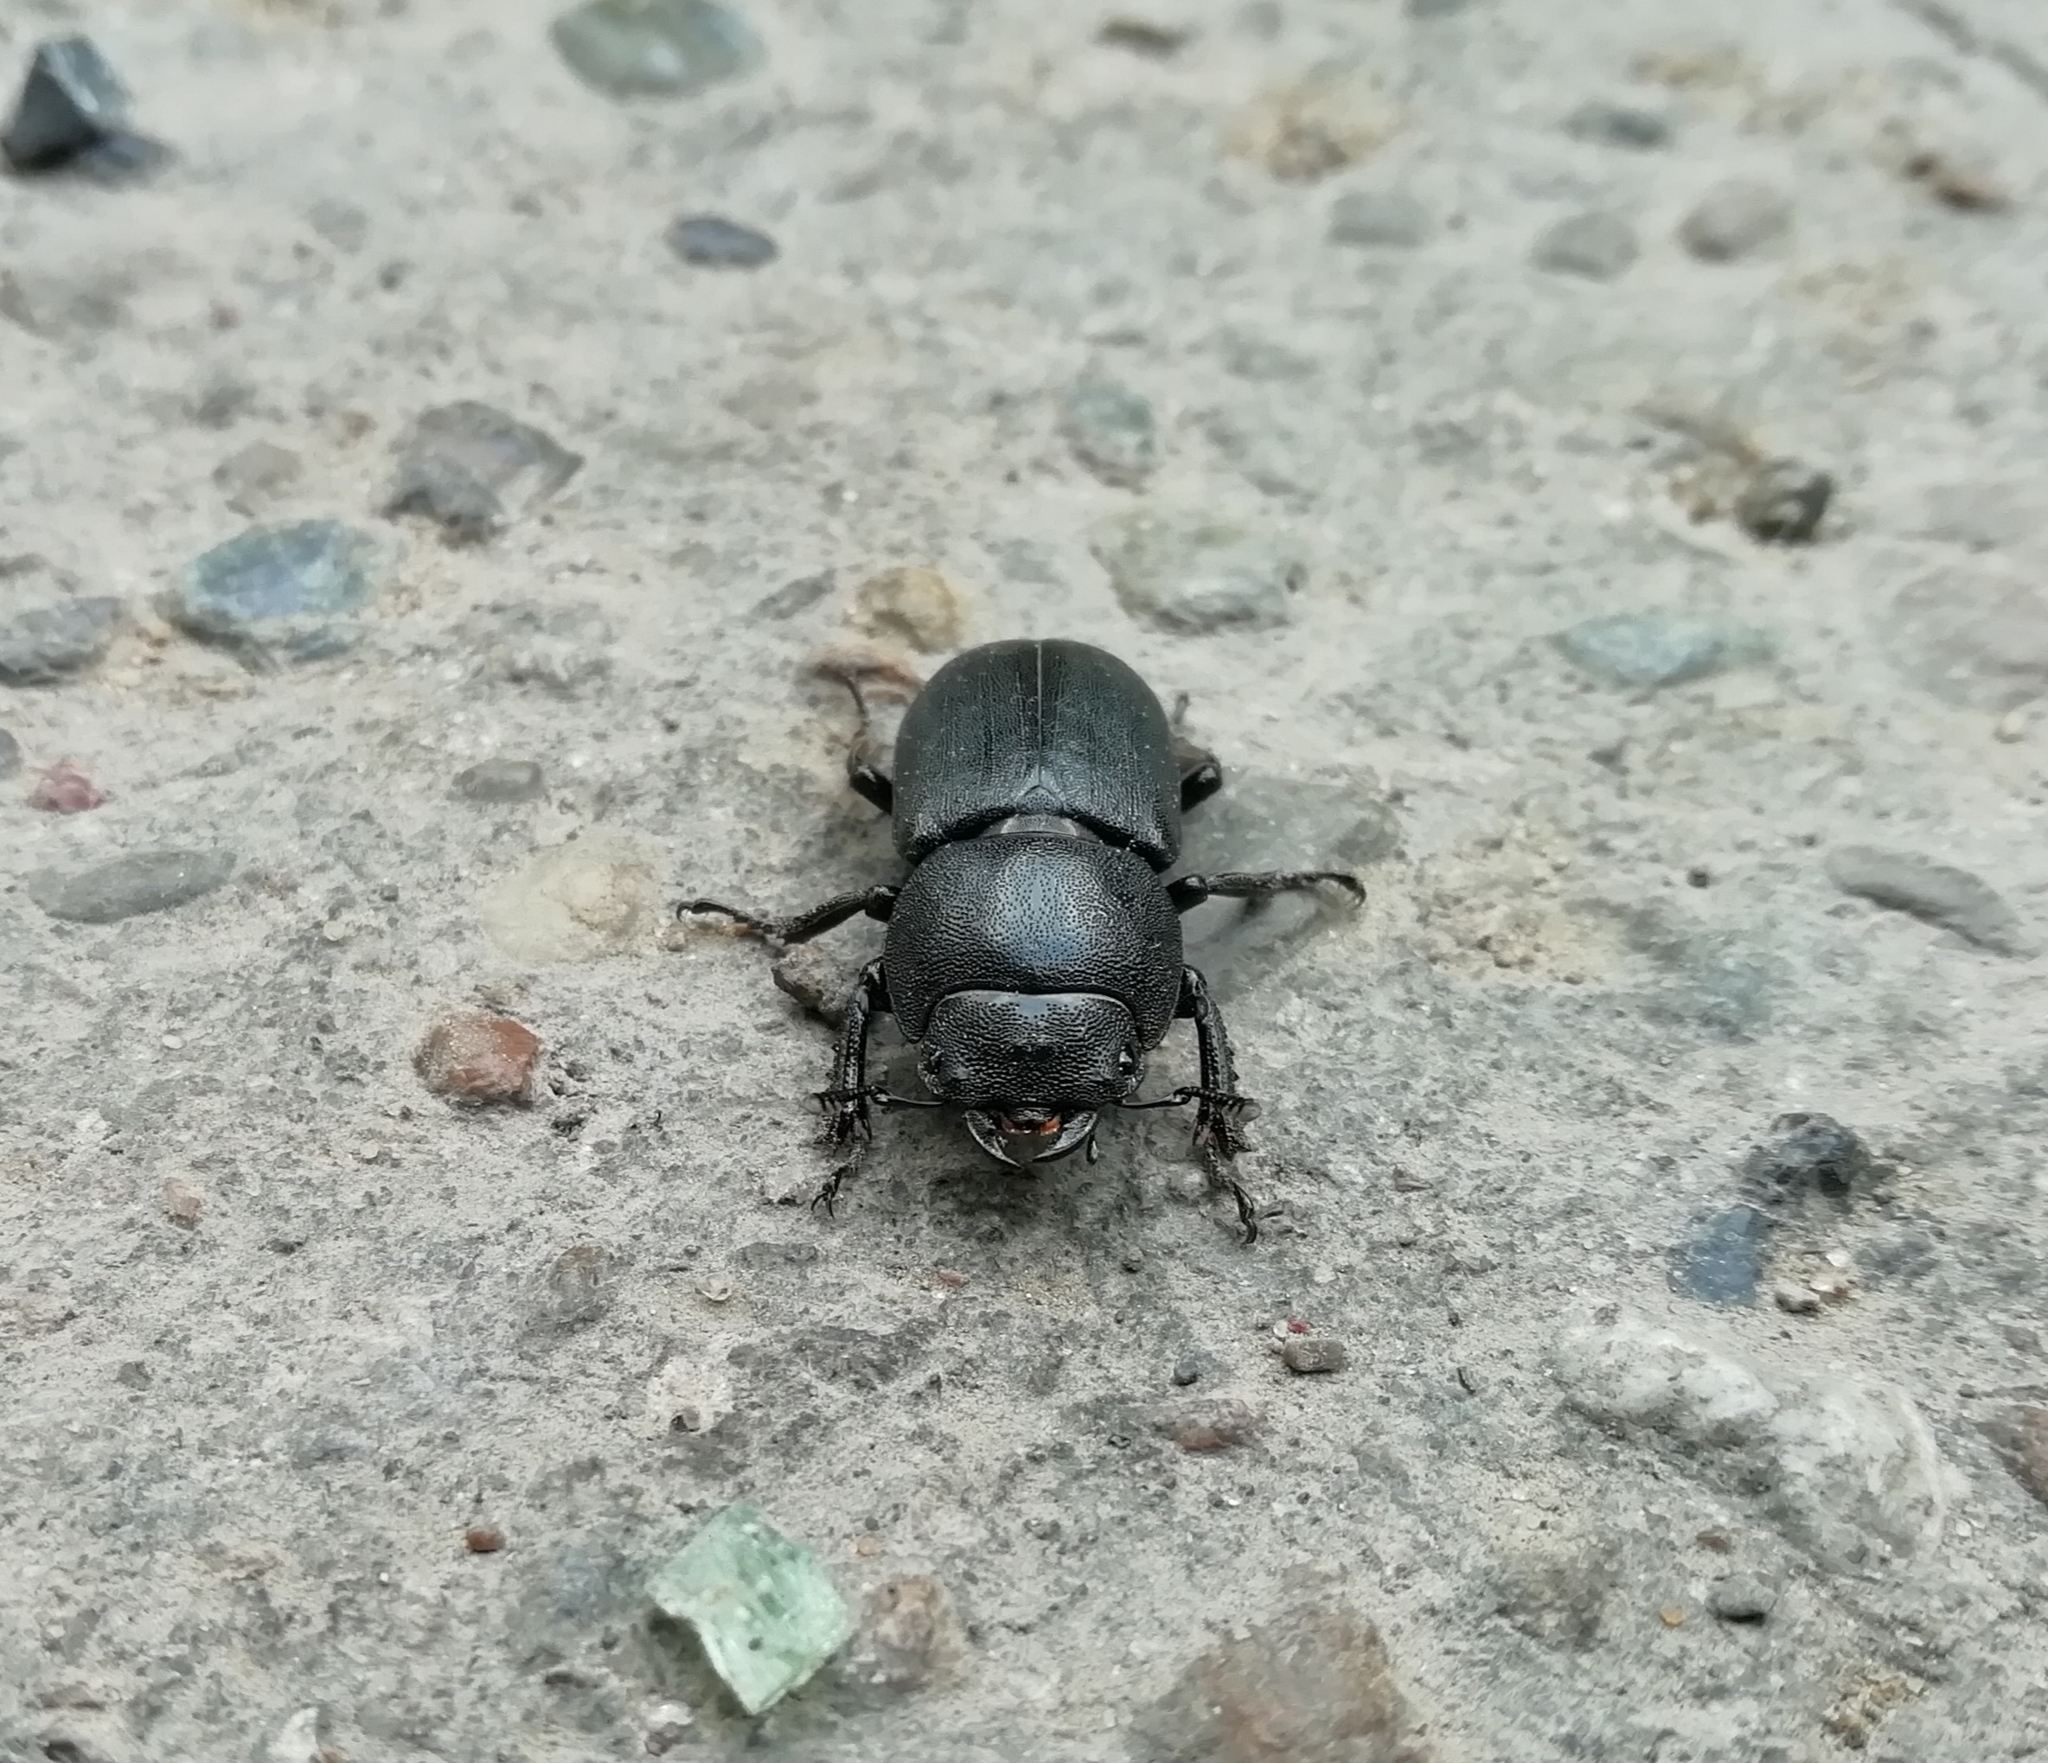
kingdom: Animalia
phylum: Arthropoda
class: Insecta
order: Coleoptera
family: Lucanidae
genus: Dorcus
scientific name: Dorcus parallelipipedus
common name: Lesser stag beetle
